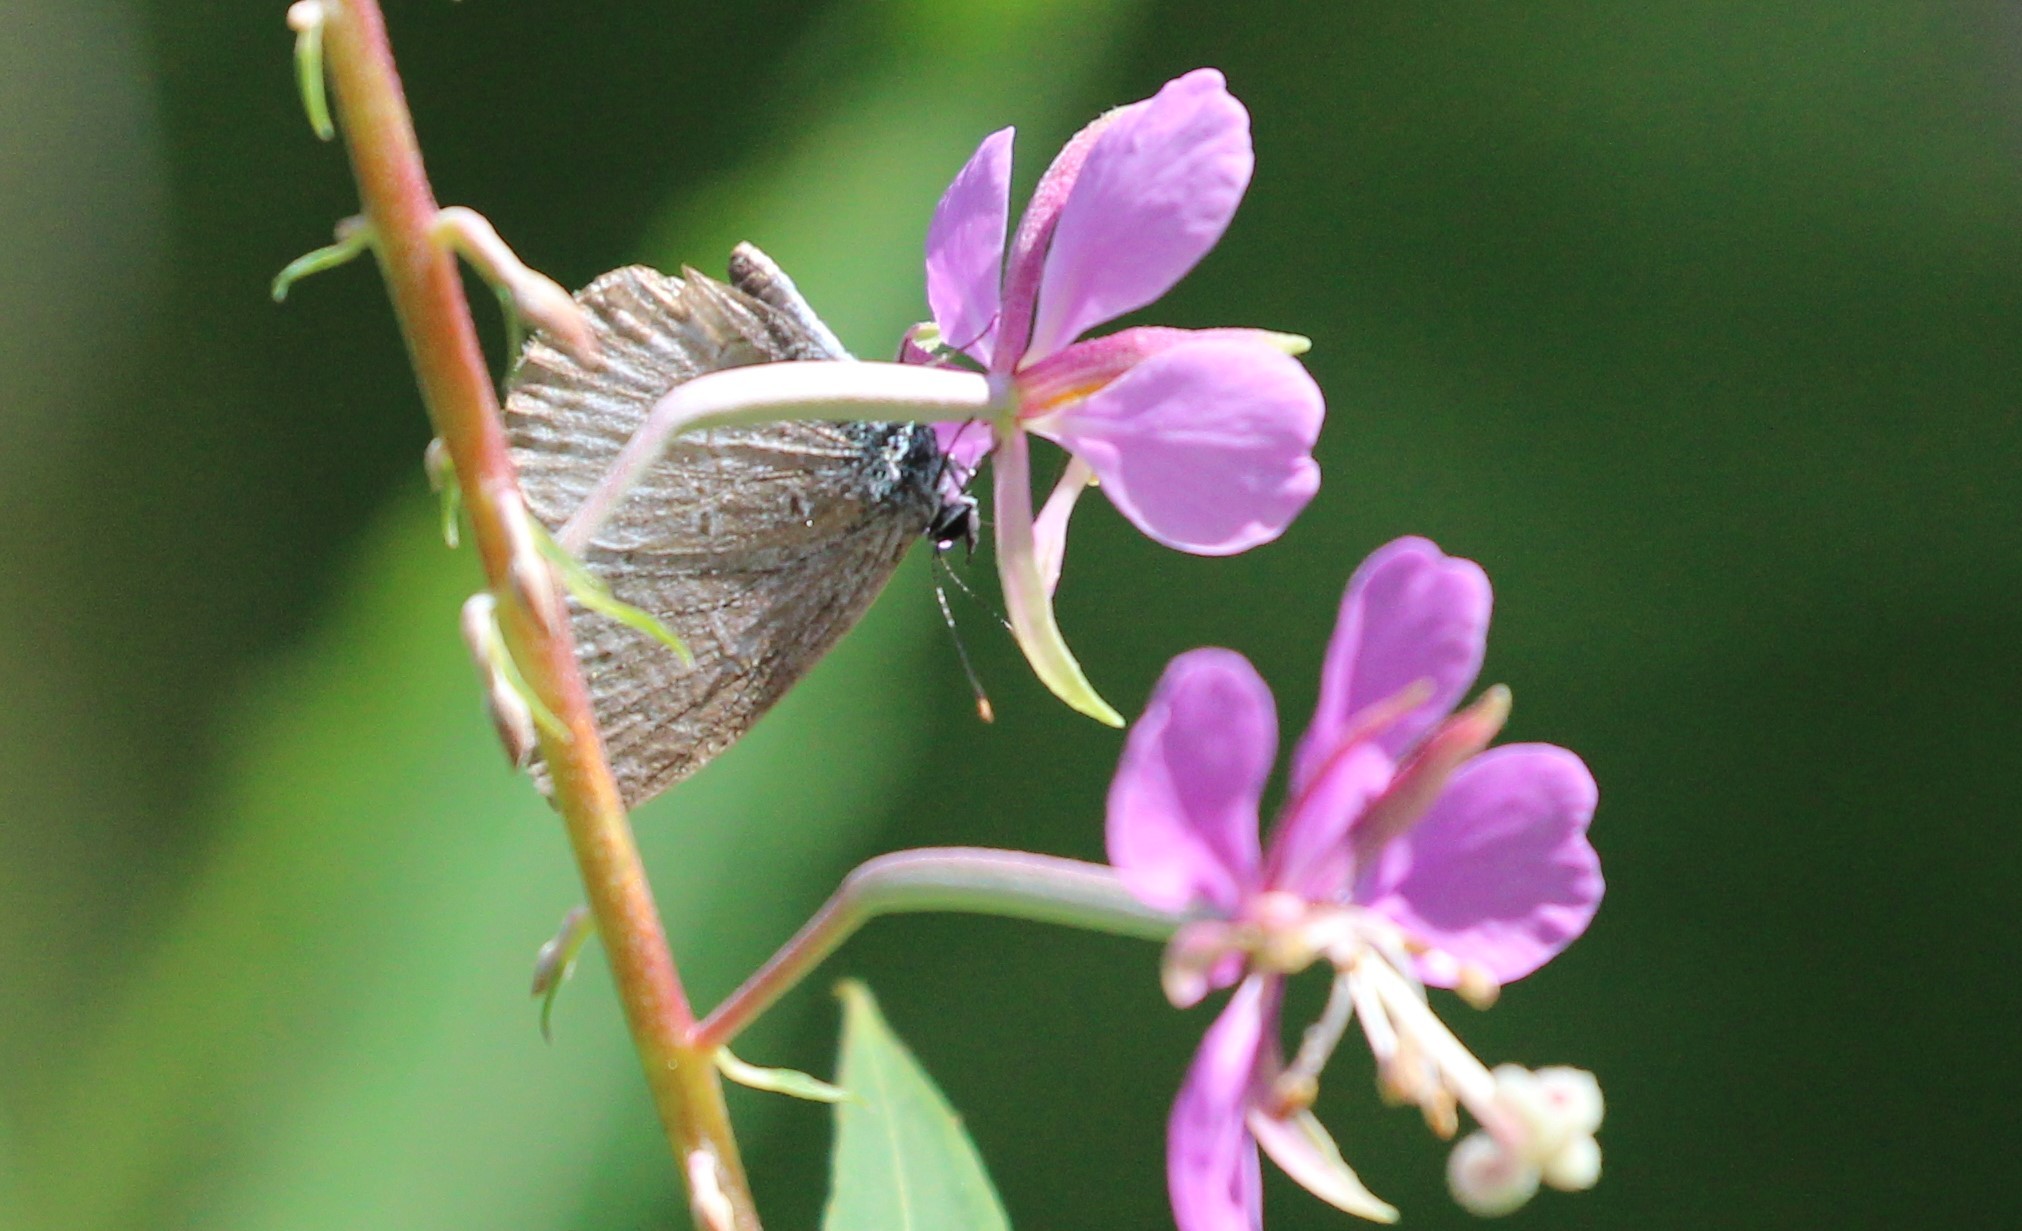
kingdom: Animalia
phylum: Arthropoda
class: Insecta
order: Lepidoptera
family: Lycaenidae
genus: Celastrina
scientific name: Celastrina lucia
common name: Lucia azure
